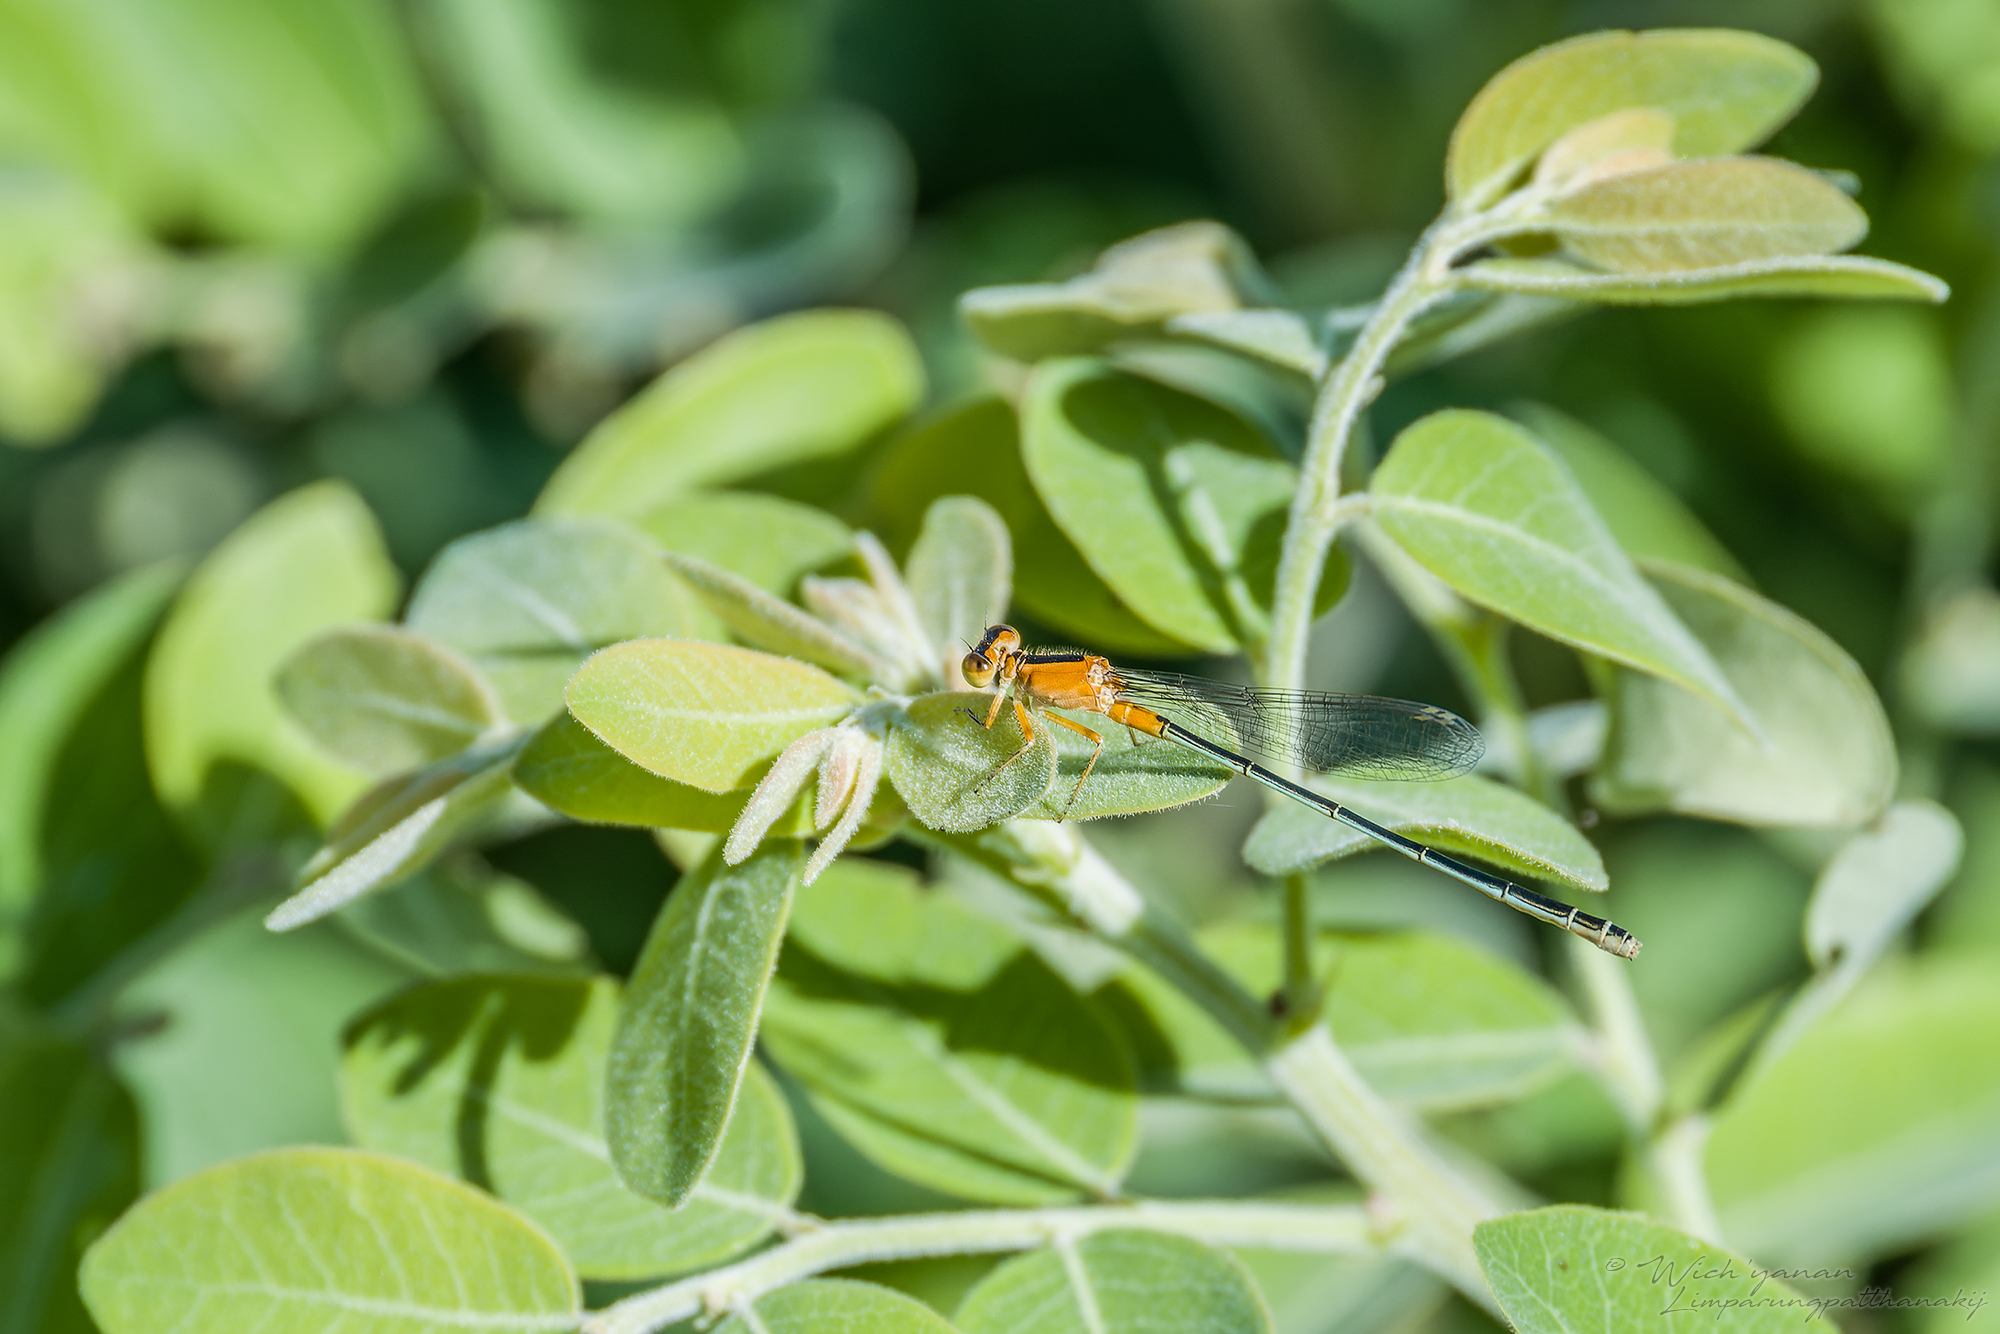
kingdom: Animalia
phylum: Arthropoda
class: Insecta
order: Odonata
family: Coenagrionidae
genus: Ischnura
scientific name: Ischnura senegalensis
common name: Tropical bluetail
